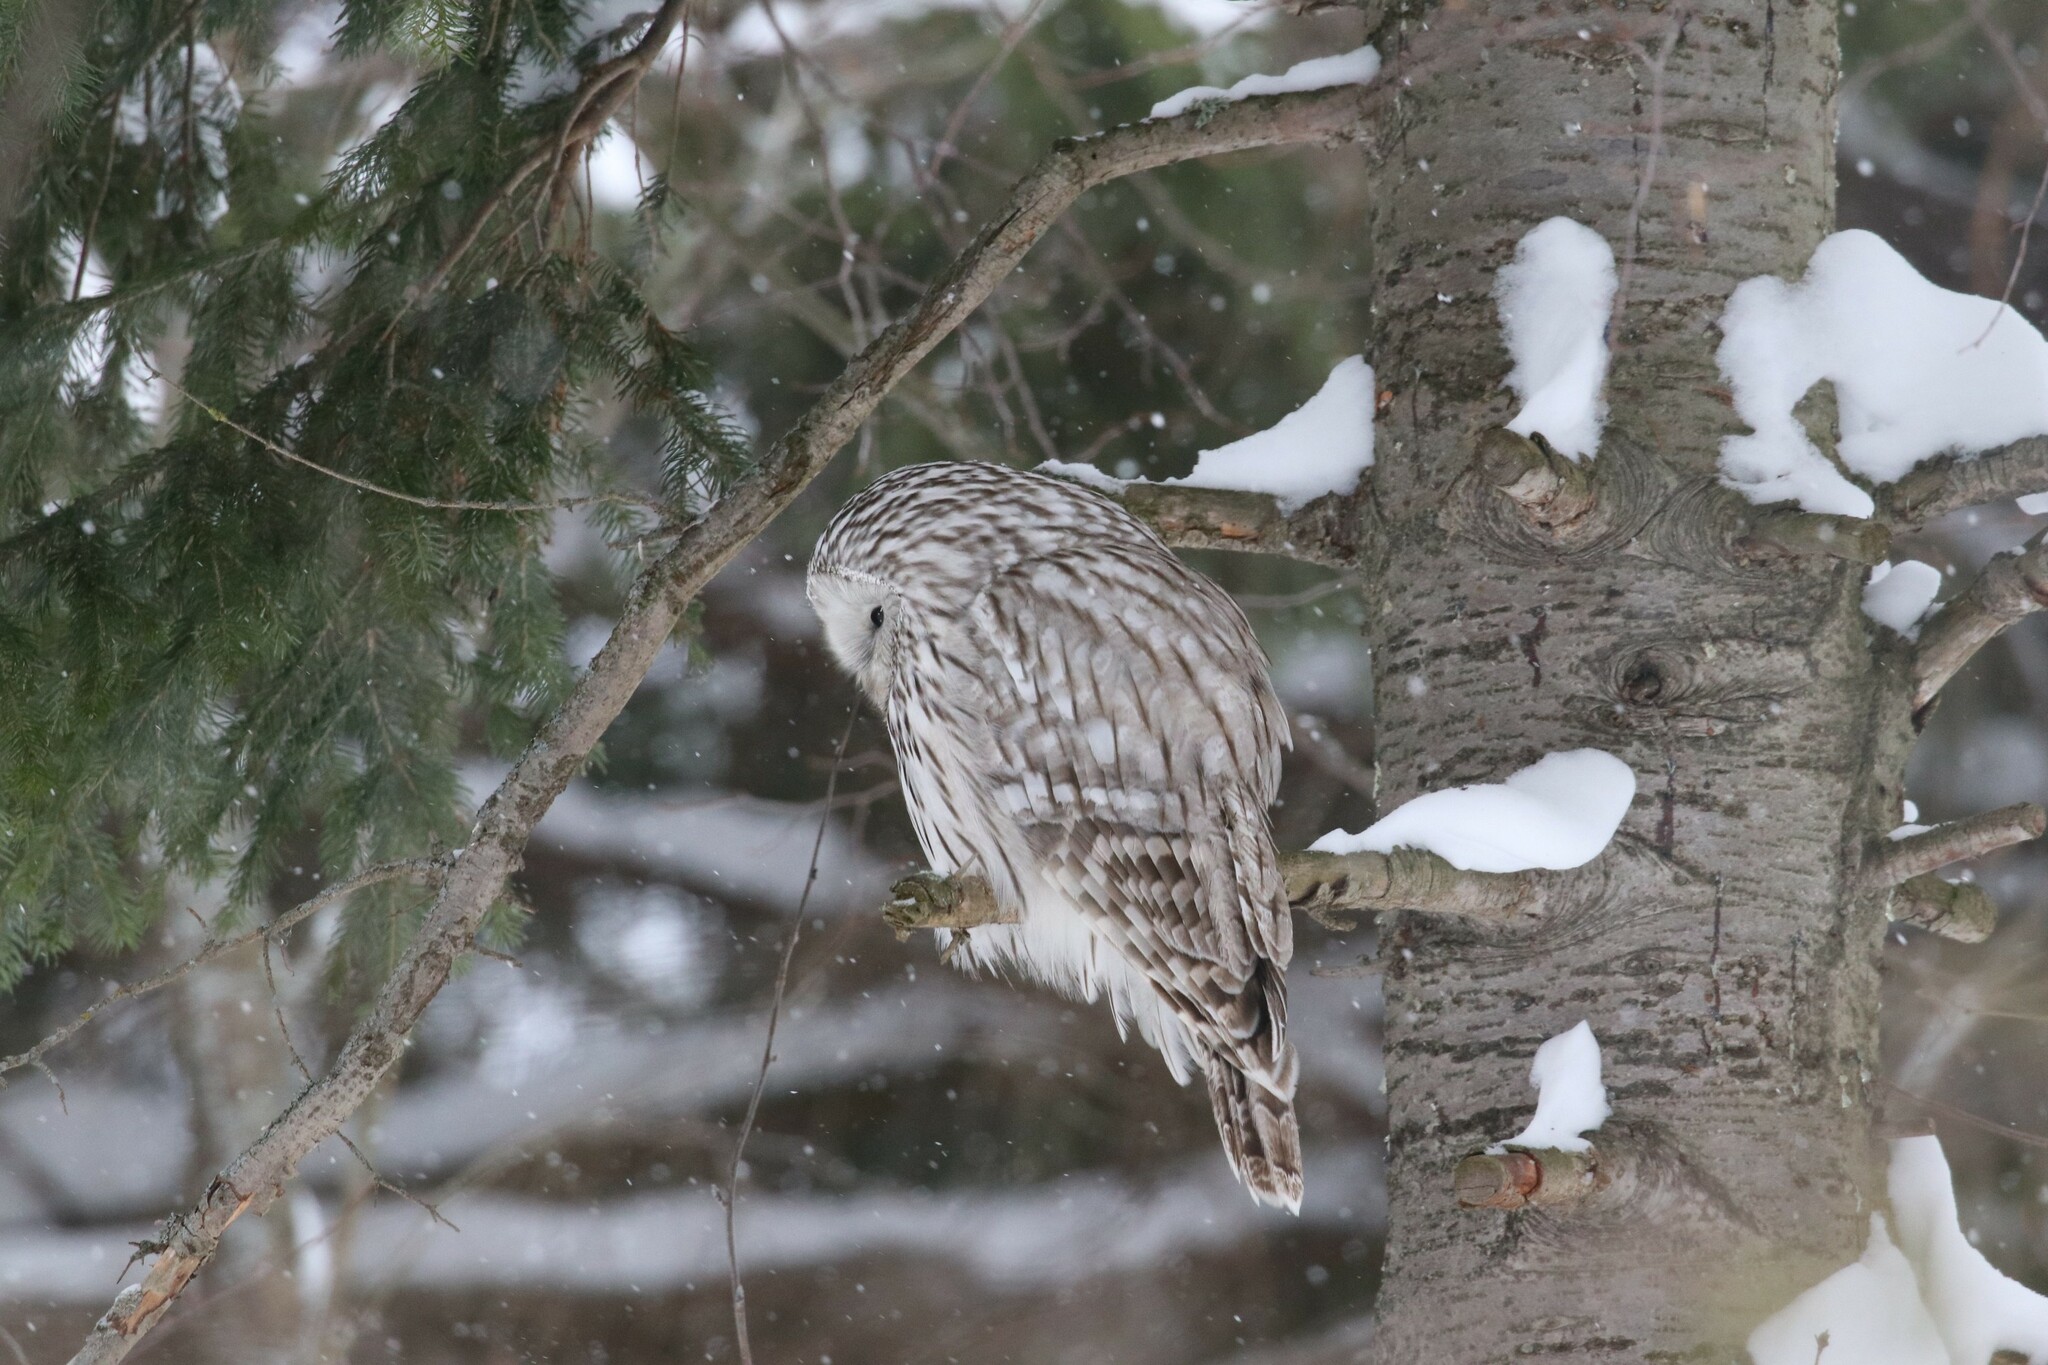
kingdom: Animalia
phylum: Chordata
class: Aves
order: Strigiformes
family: Strigidae
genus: Strix
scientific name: Strix uralensis
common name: Ural owl
